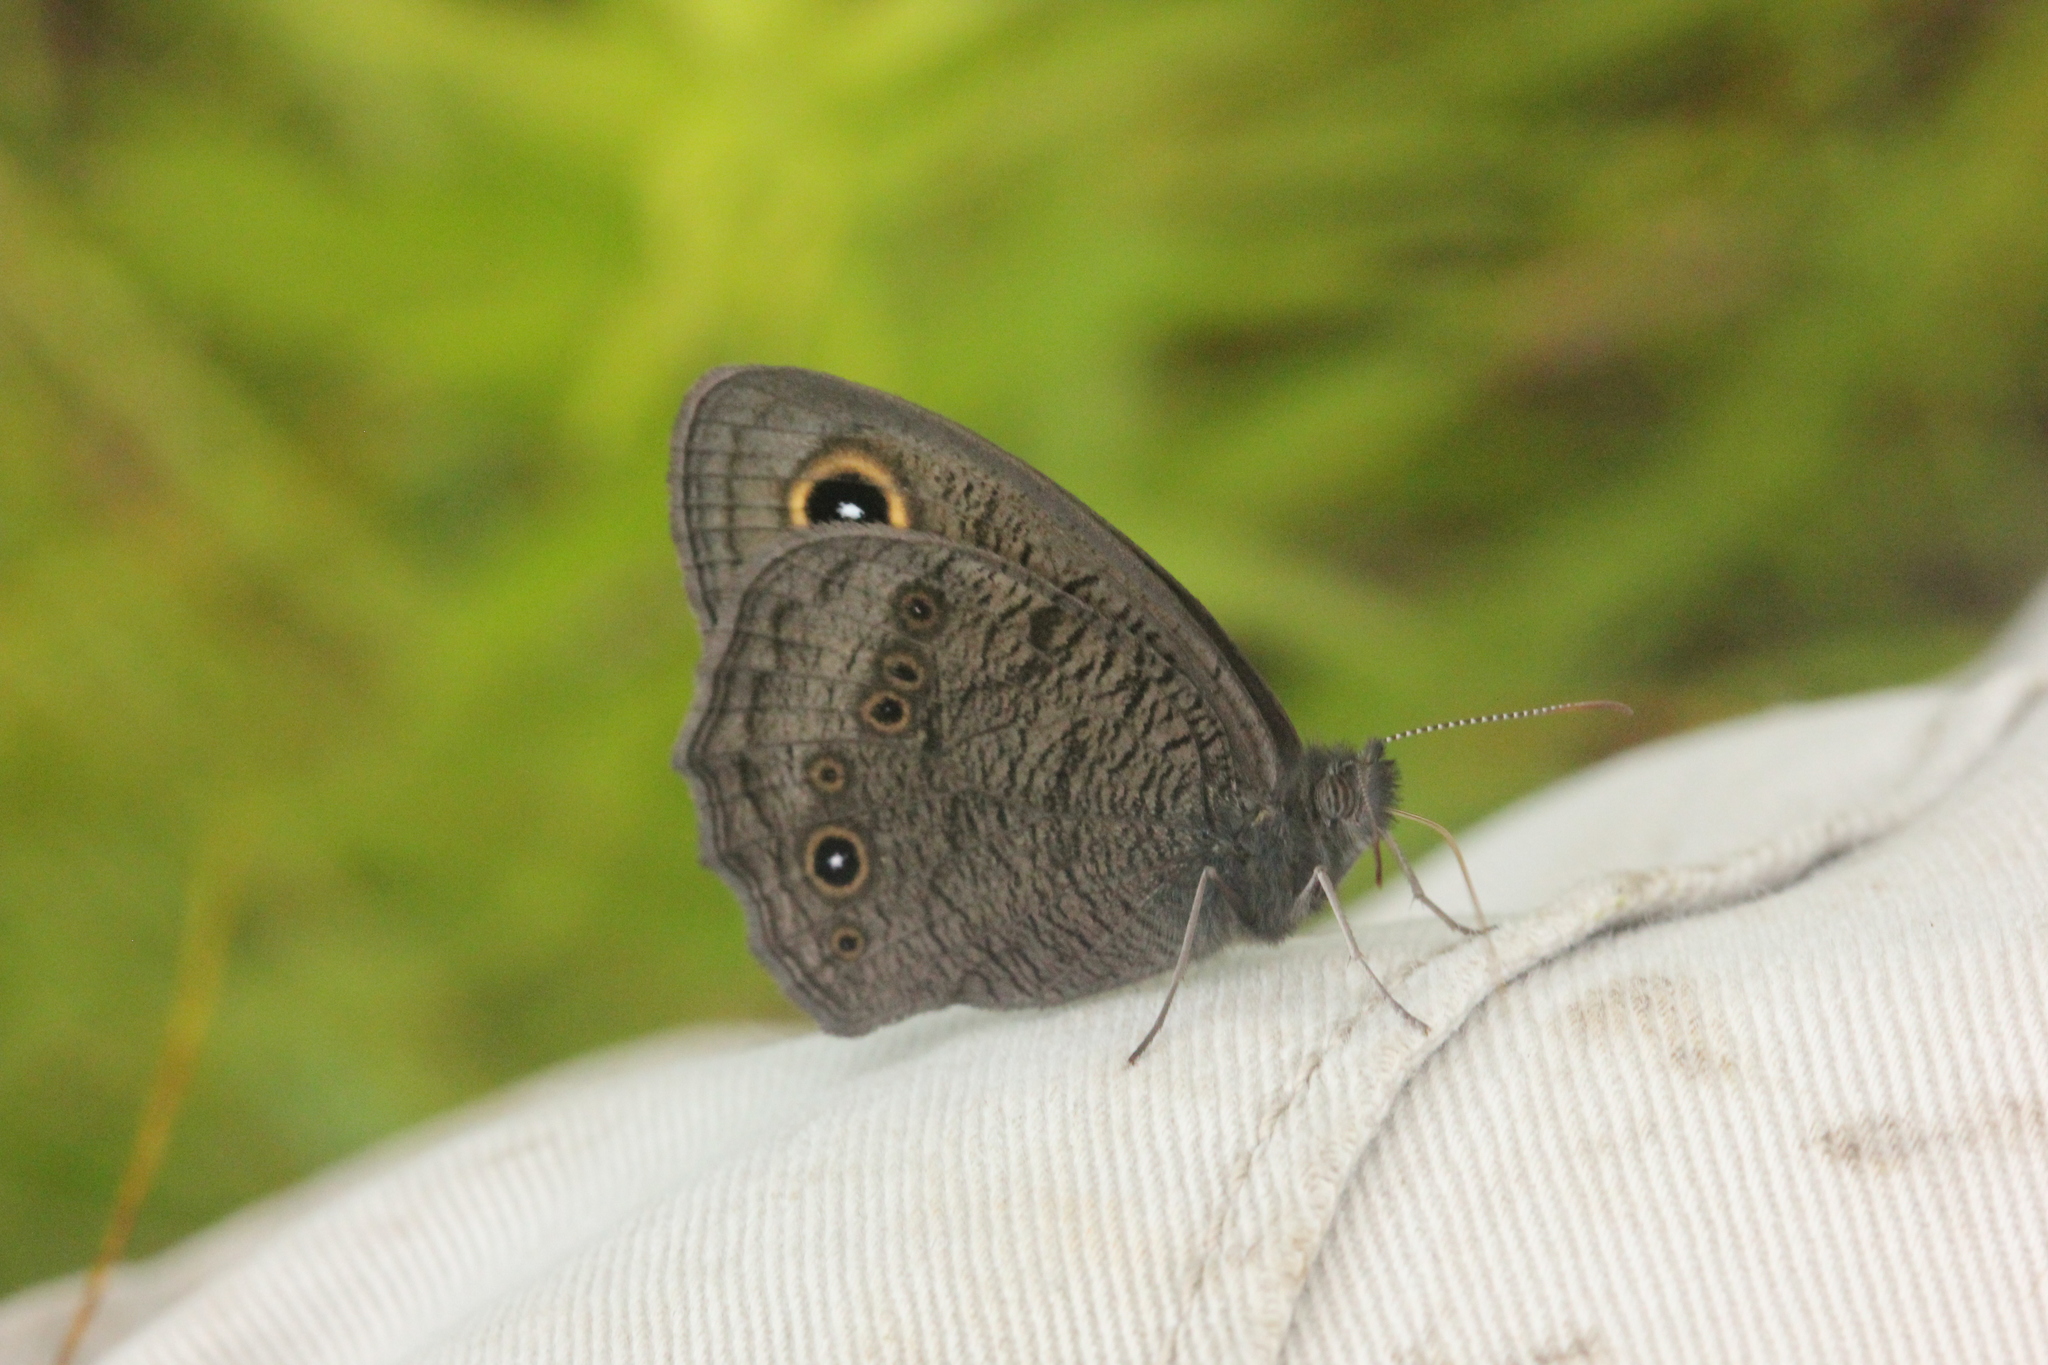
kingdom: Animalia
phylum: Arthropoda
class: Insecta
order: Lepidoptera
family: Nymphalidae
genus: Cercyonis
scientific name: Cercyonis pegala
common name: Common wood-nymph
